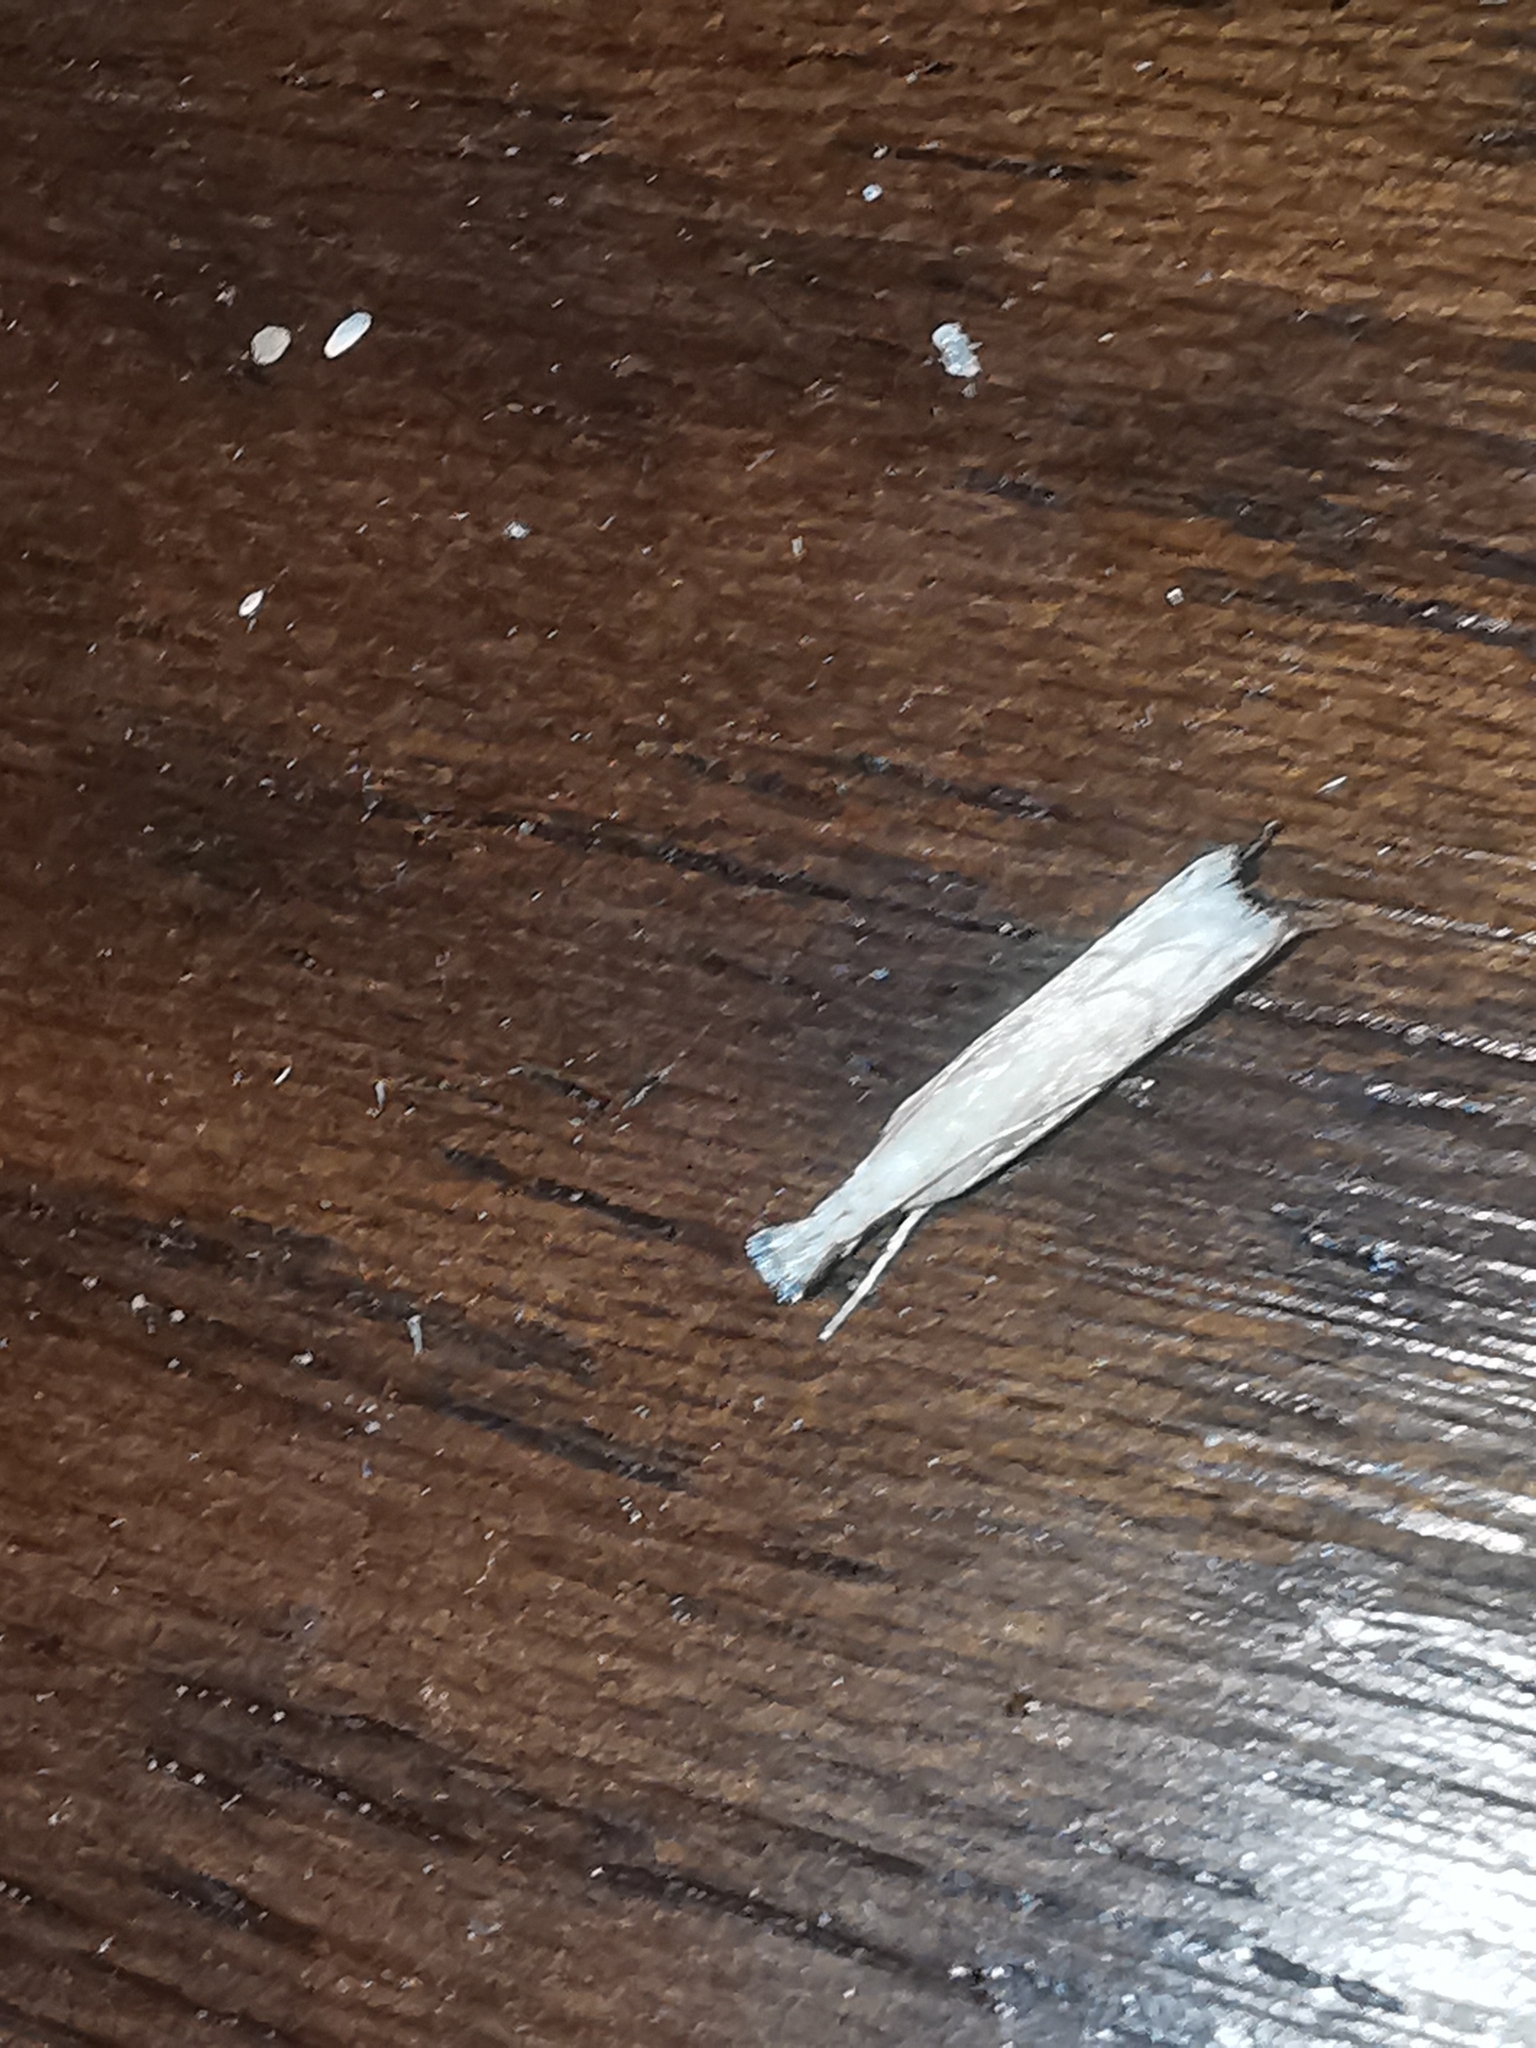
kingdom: Animalia
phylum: Arthropoda
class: Insecta
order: Lepidoptera
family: Crambidae
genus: Metacrambus
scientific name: Metacrambus carectellus
